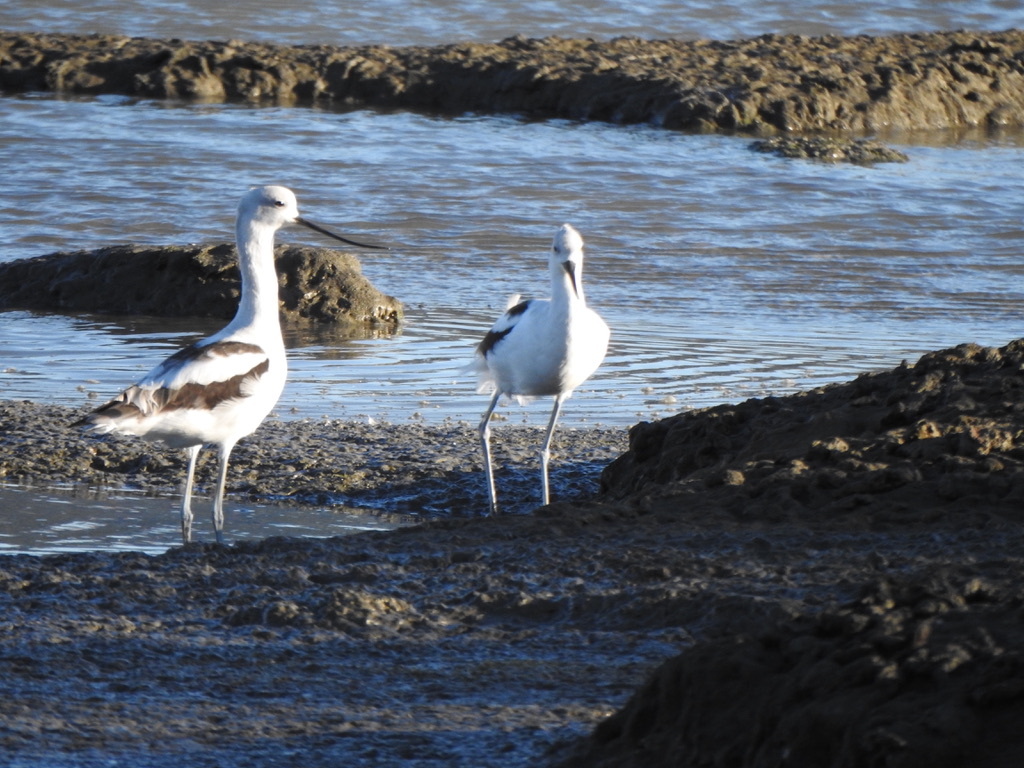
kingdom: Animalia
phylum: Chordata
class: Aves
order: Charadriiformes
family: Recurvirostridae
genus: Recurvirostra
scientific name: Recurvirostra americana
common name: American avocet
